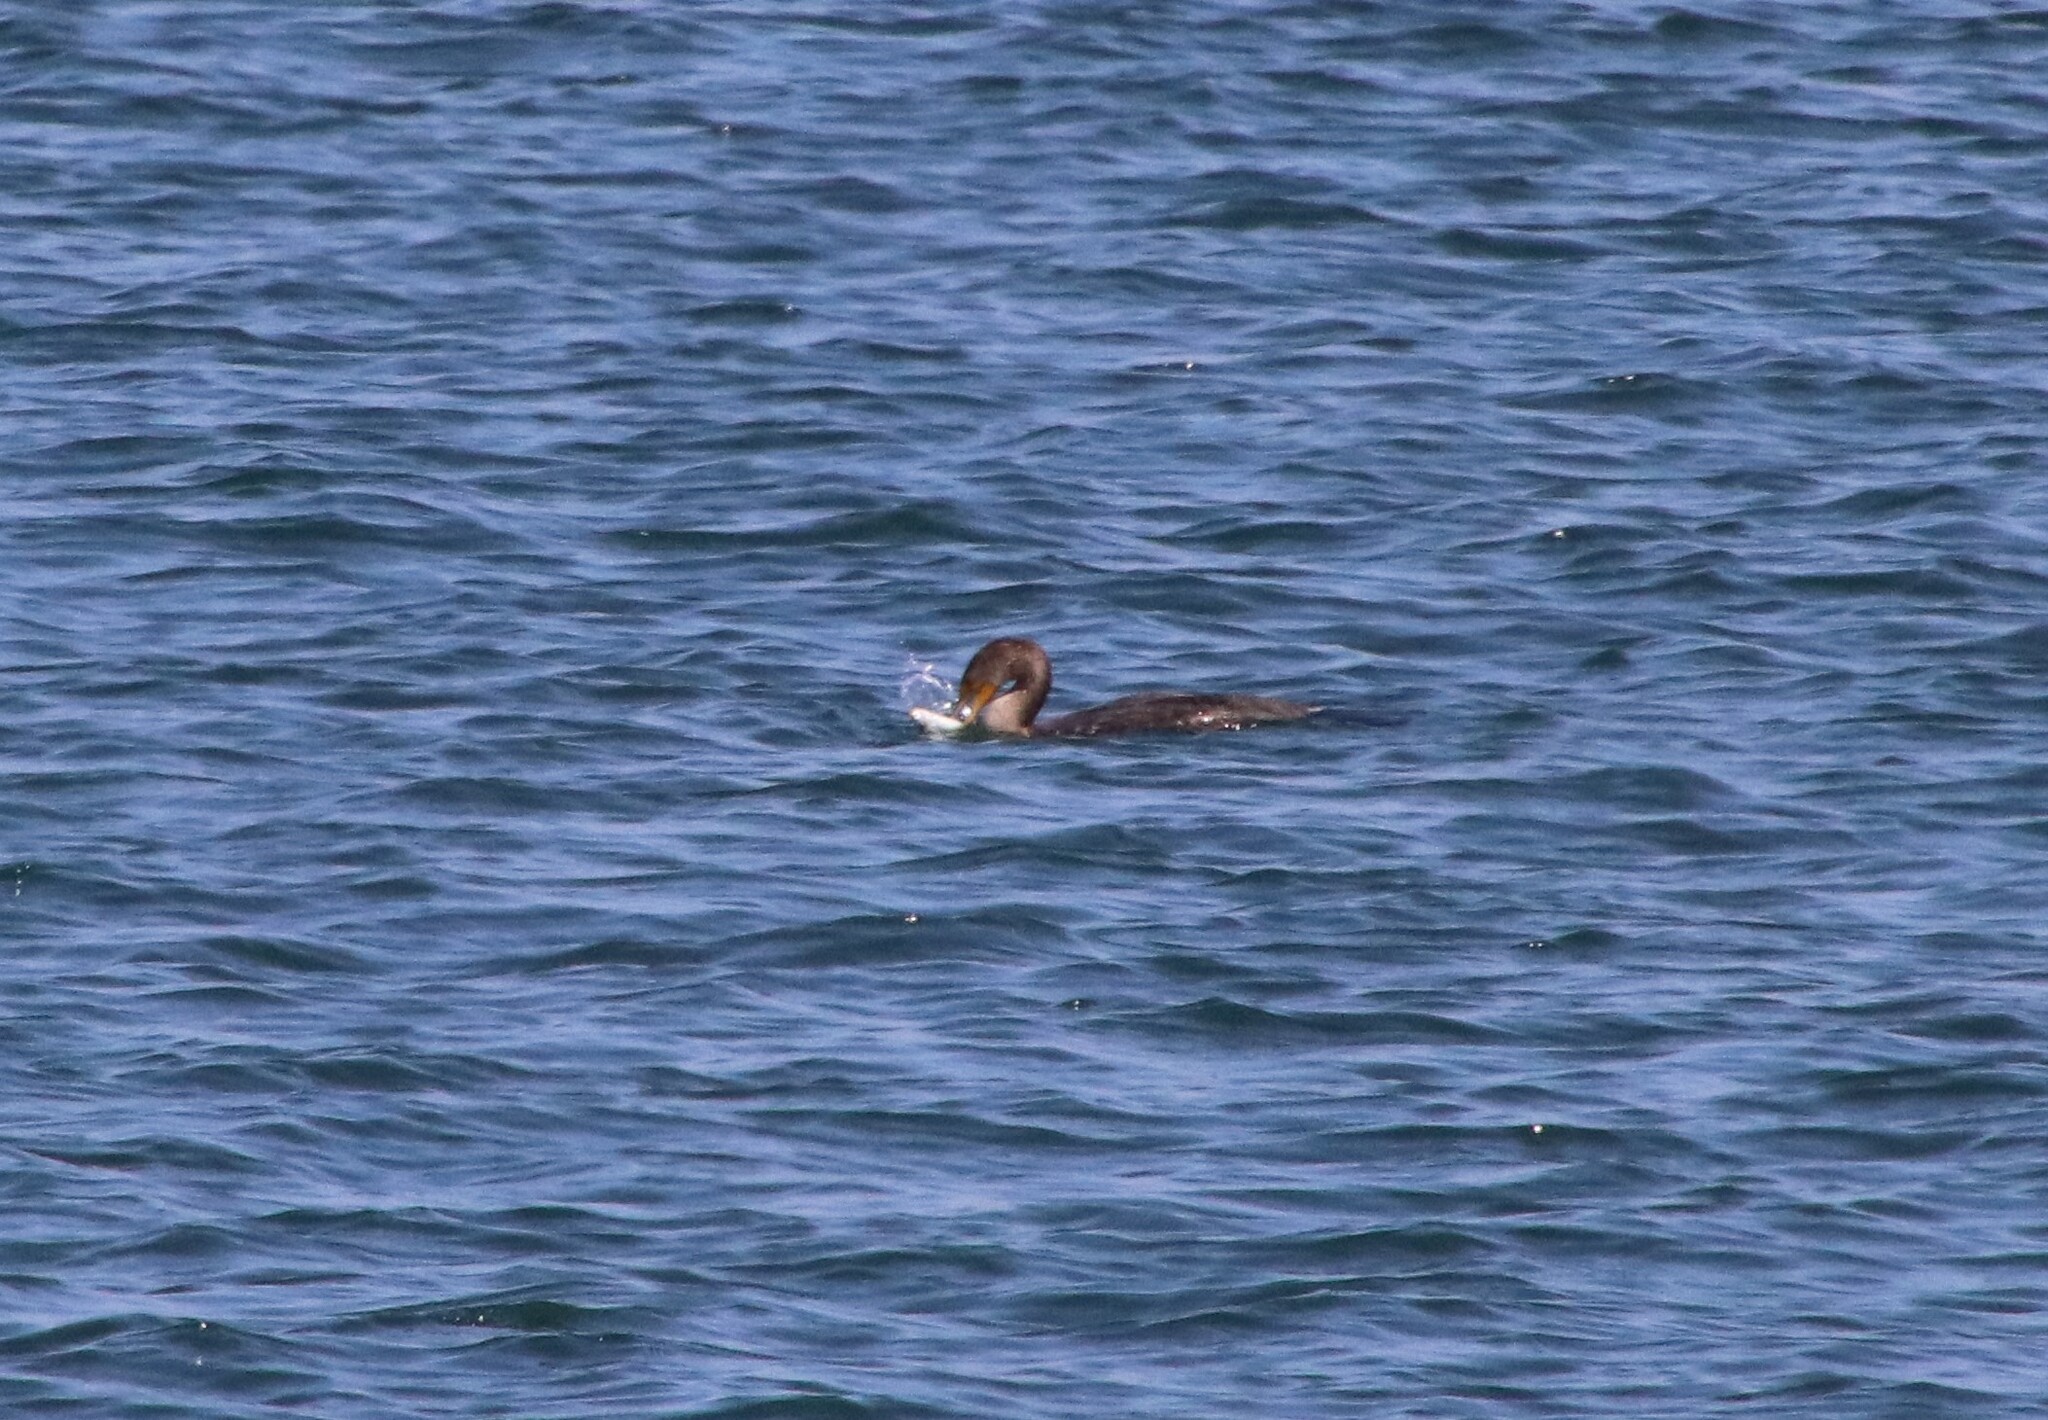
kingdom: Animalia
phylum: Chordata
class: Aves
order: Suliformes
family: Phalacrocoracidae
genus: Phalacrocorax
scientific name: Phalacrocorax auritus
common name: Double-crested cormorant
